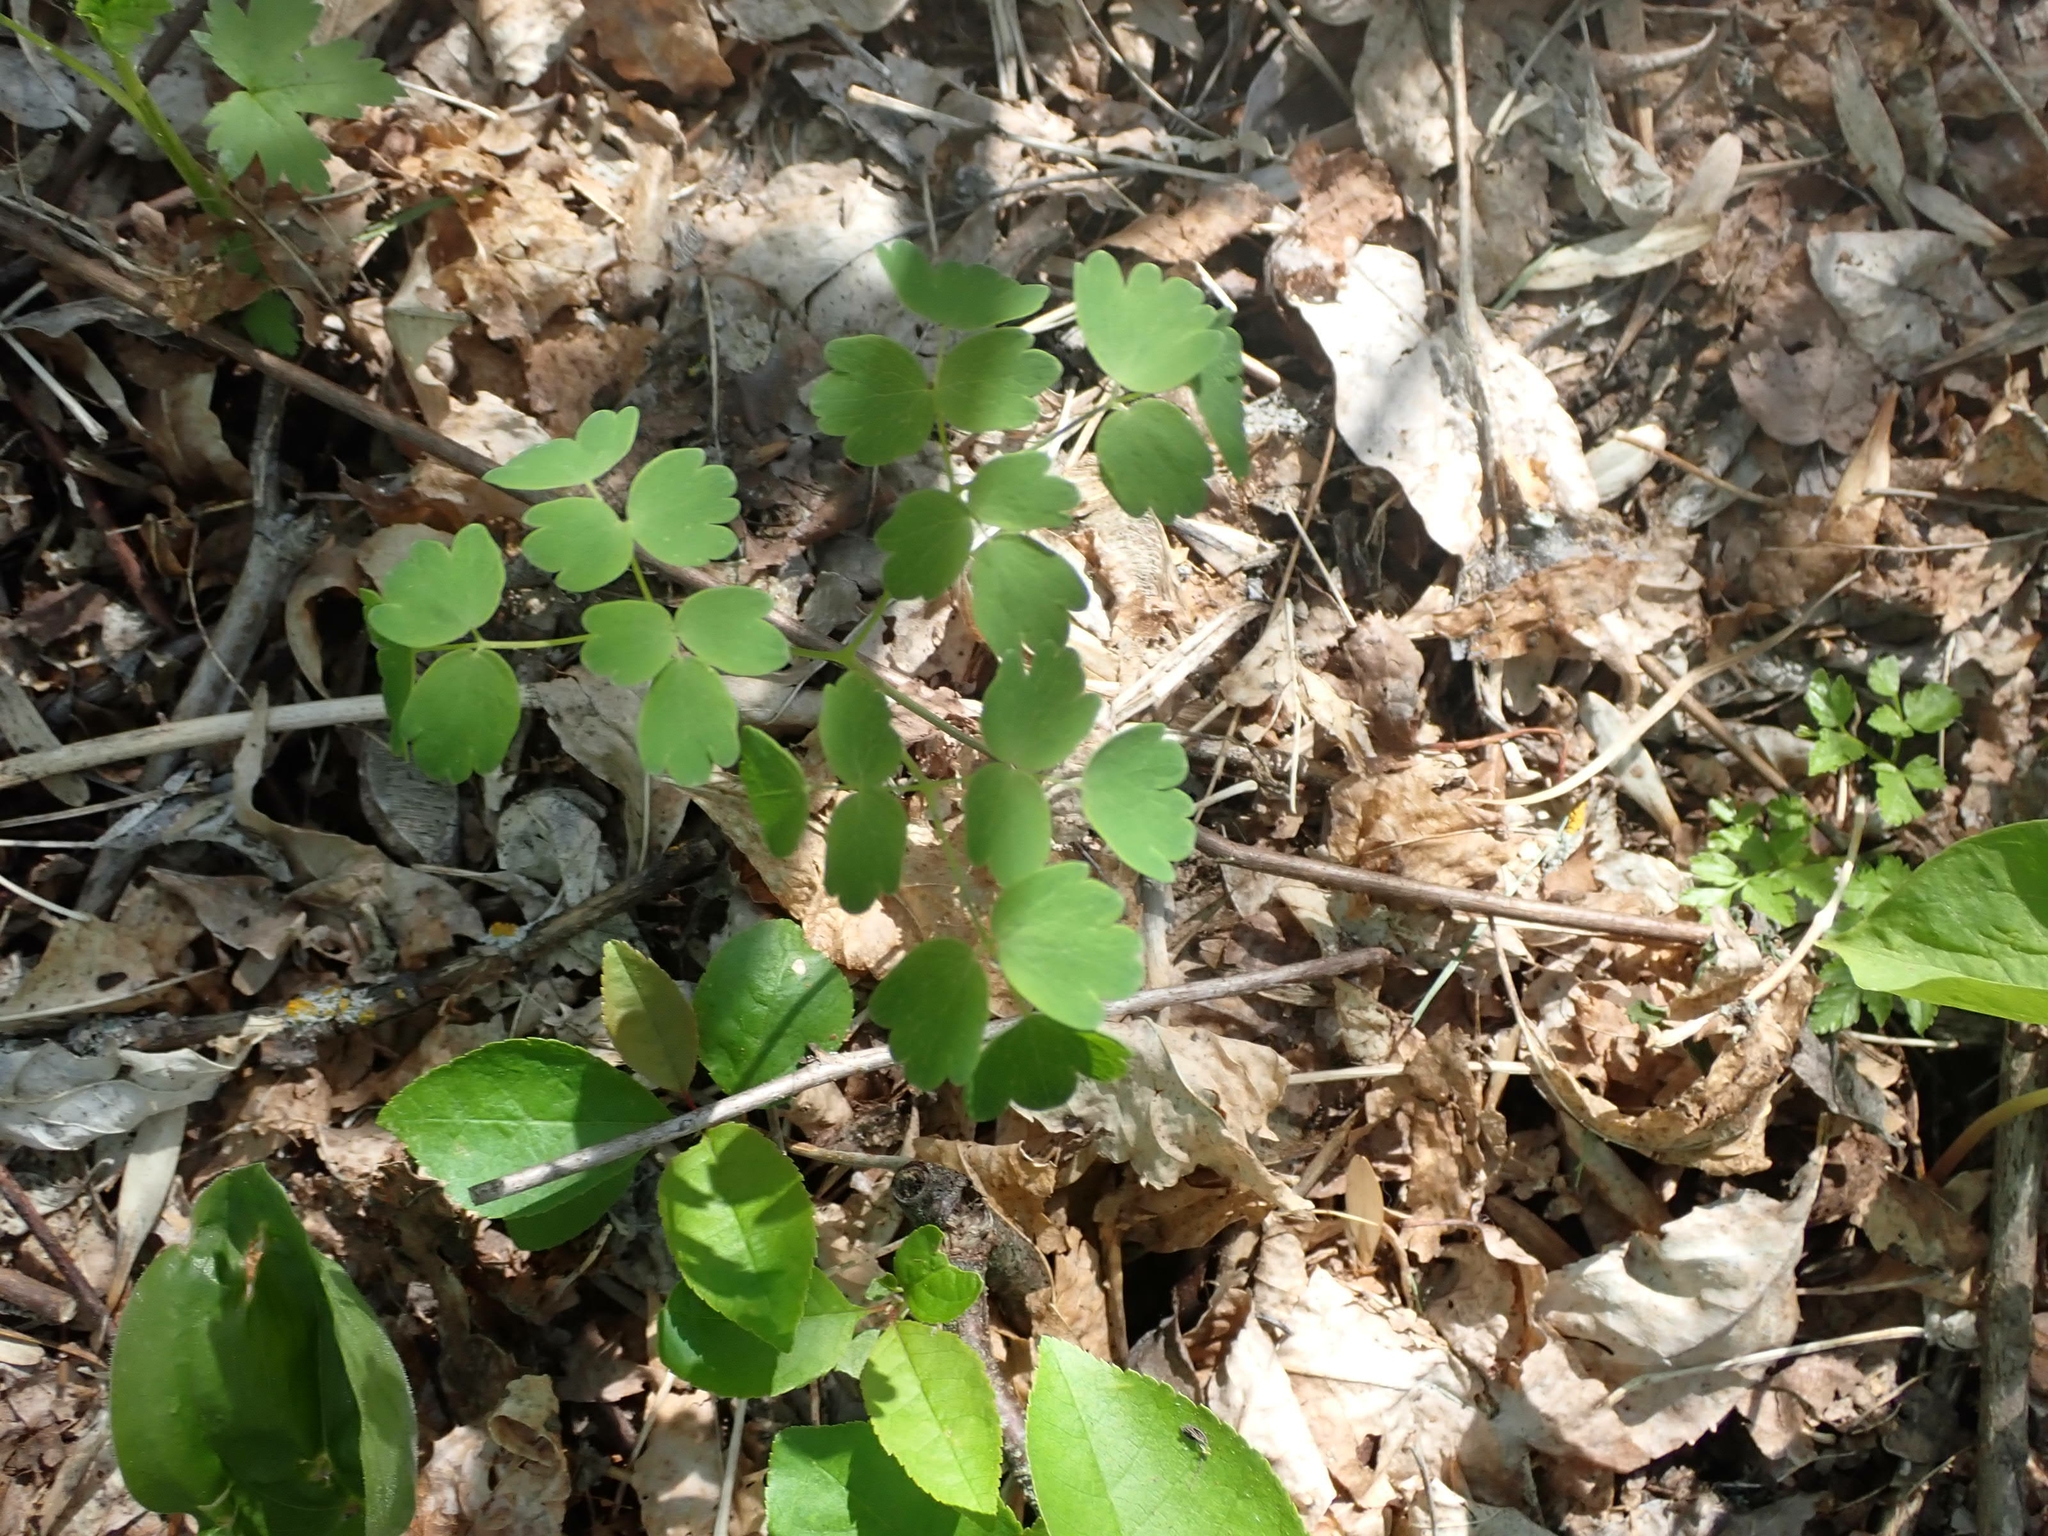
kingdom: Plantae
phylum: Tracheophyta
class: Magnoliopsida
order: Ranunculales
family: Ranunculaceae
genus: Thalictrum
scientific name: Thalictrum venulosum
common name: Early meadow-rue
